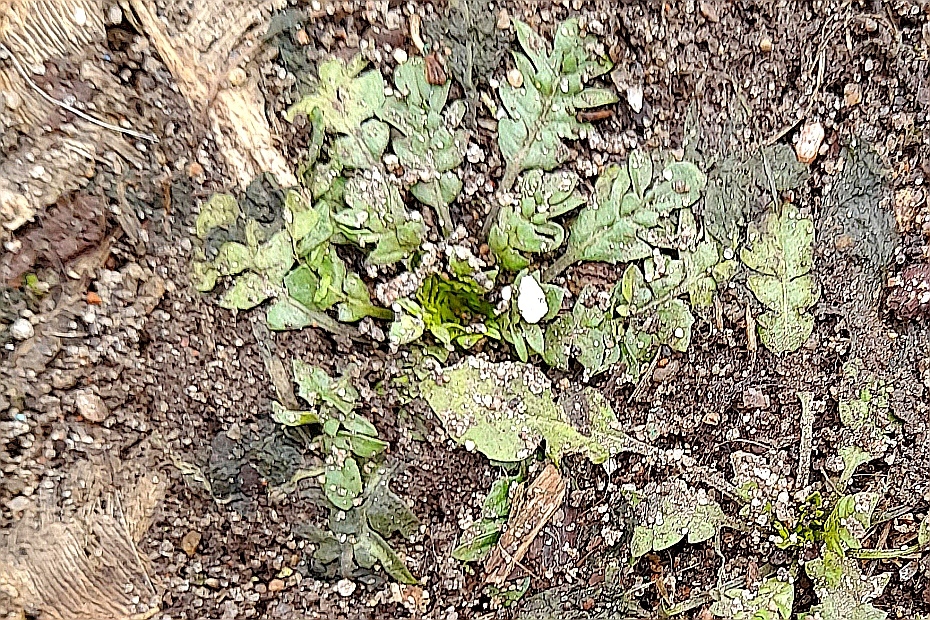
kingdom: Plantae
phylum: Tracheophyta
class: Magnoliopsida
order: Brassicales
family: Brassicaceae
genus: Capsella
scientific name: Capsella bursa-pastoris
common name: Shepherd's purse
